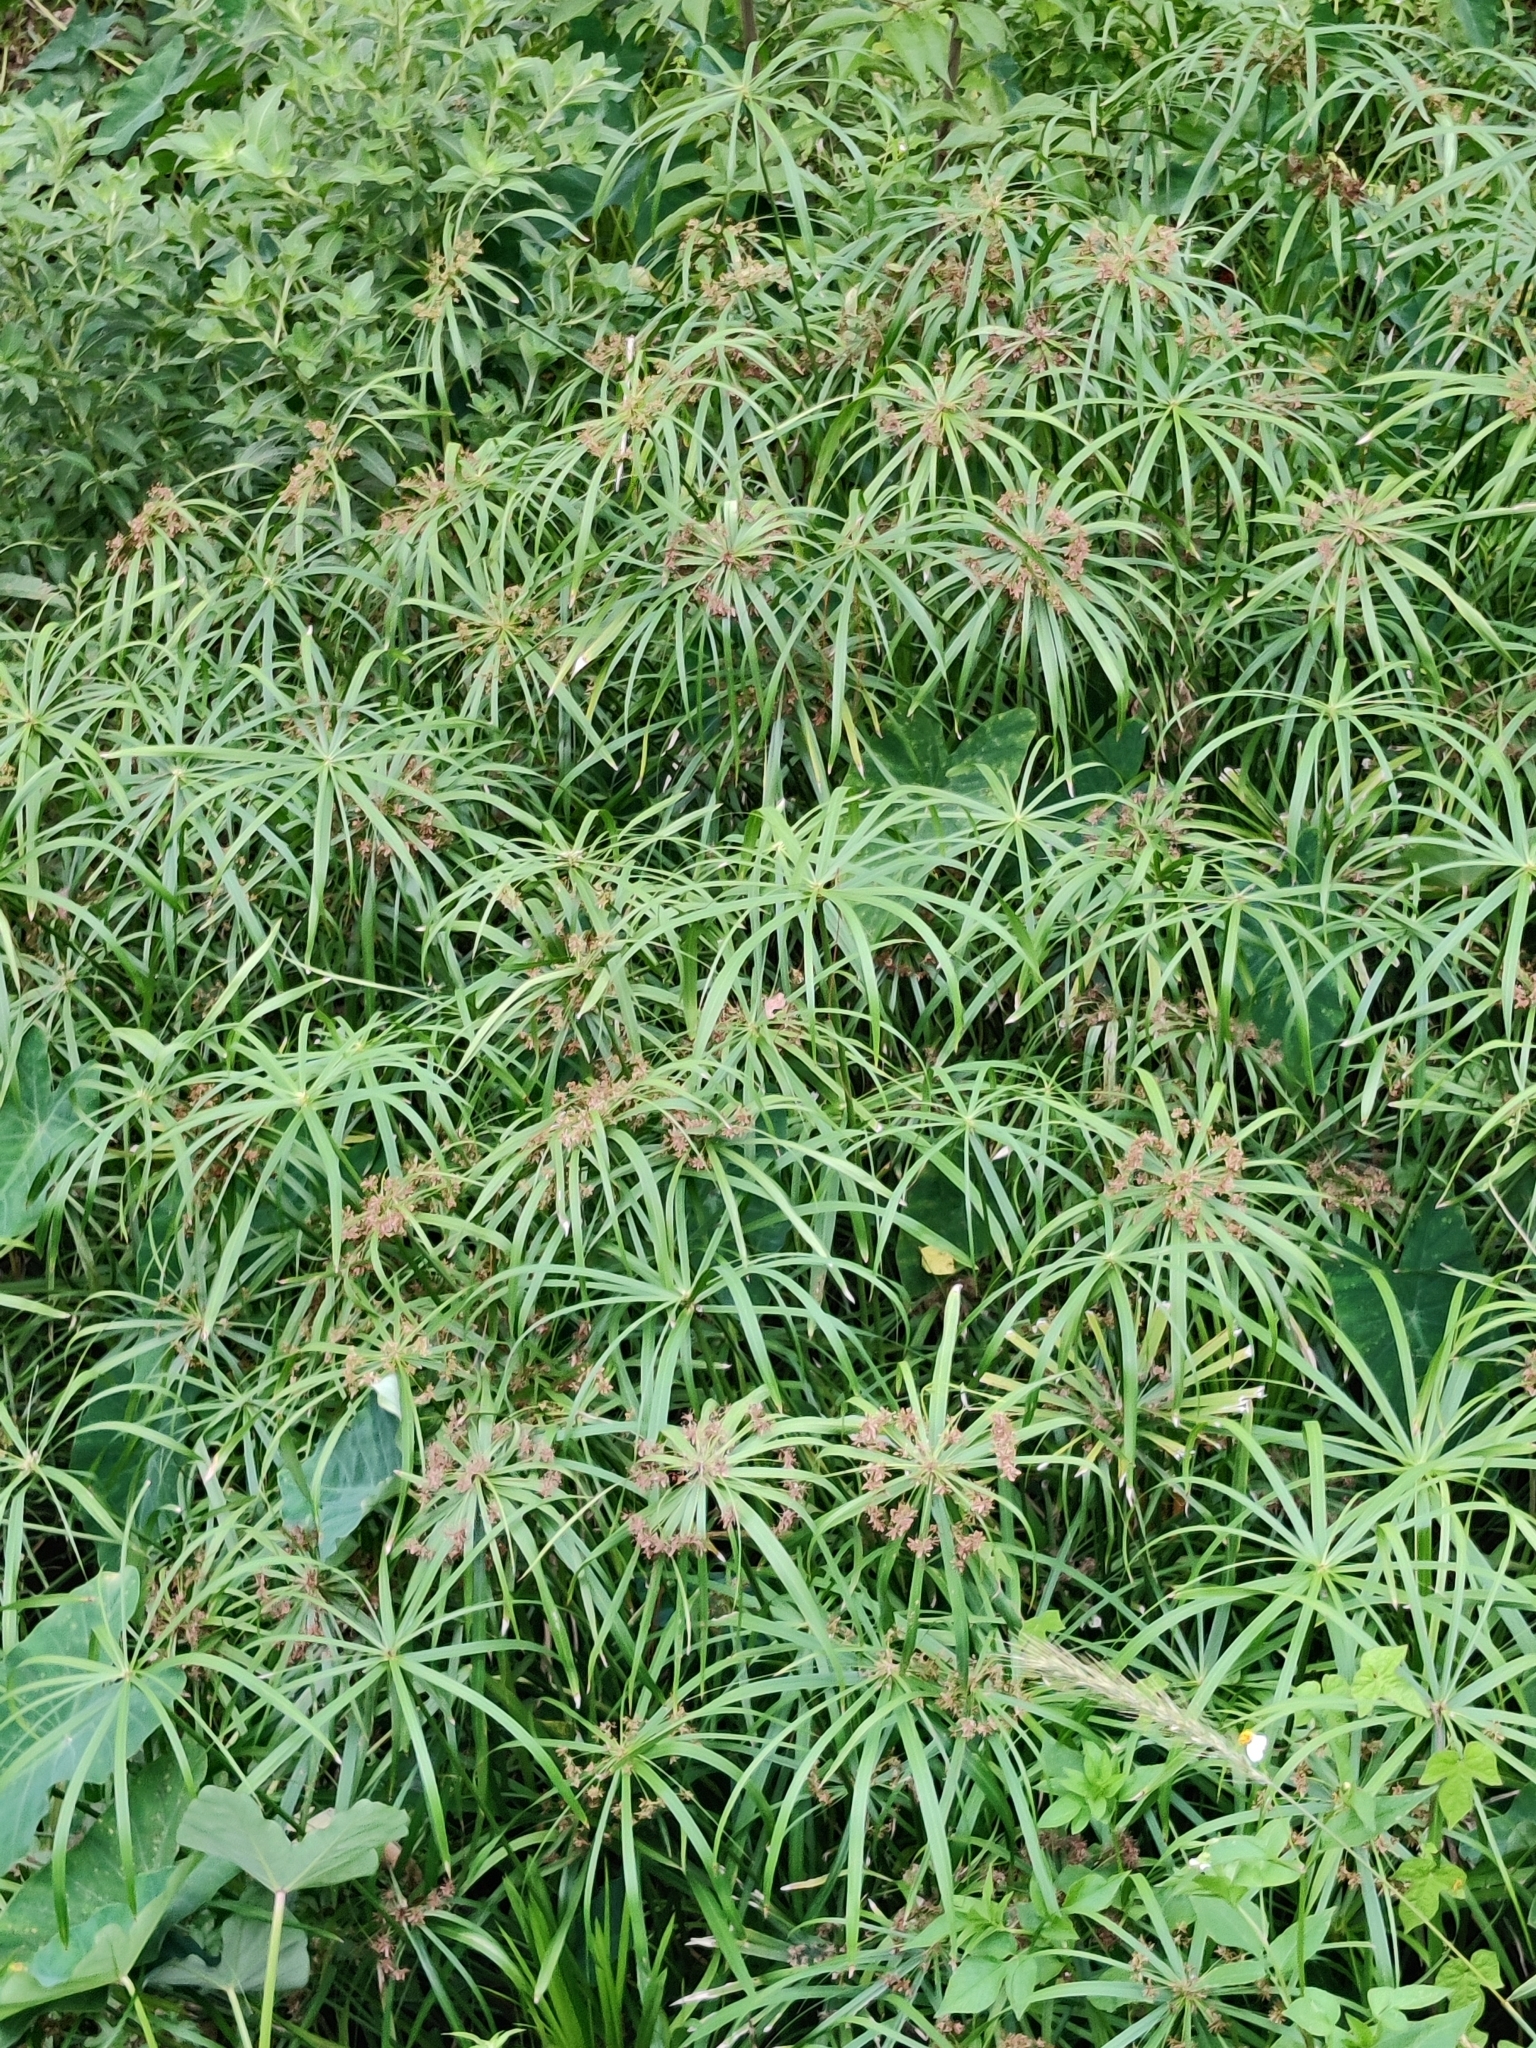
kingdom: Plantae
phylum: Tracheophyta
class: Liliopsida
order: Poales
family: Cyperaceae
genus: Cyperus
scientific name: Cyperus alternifolius
